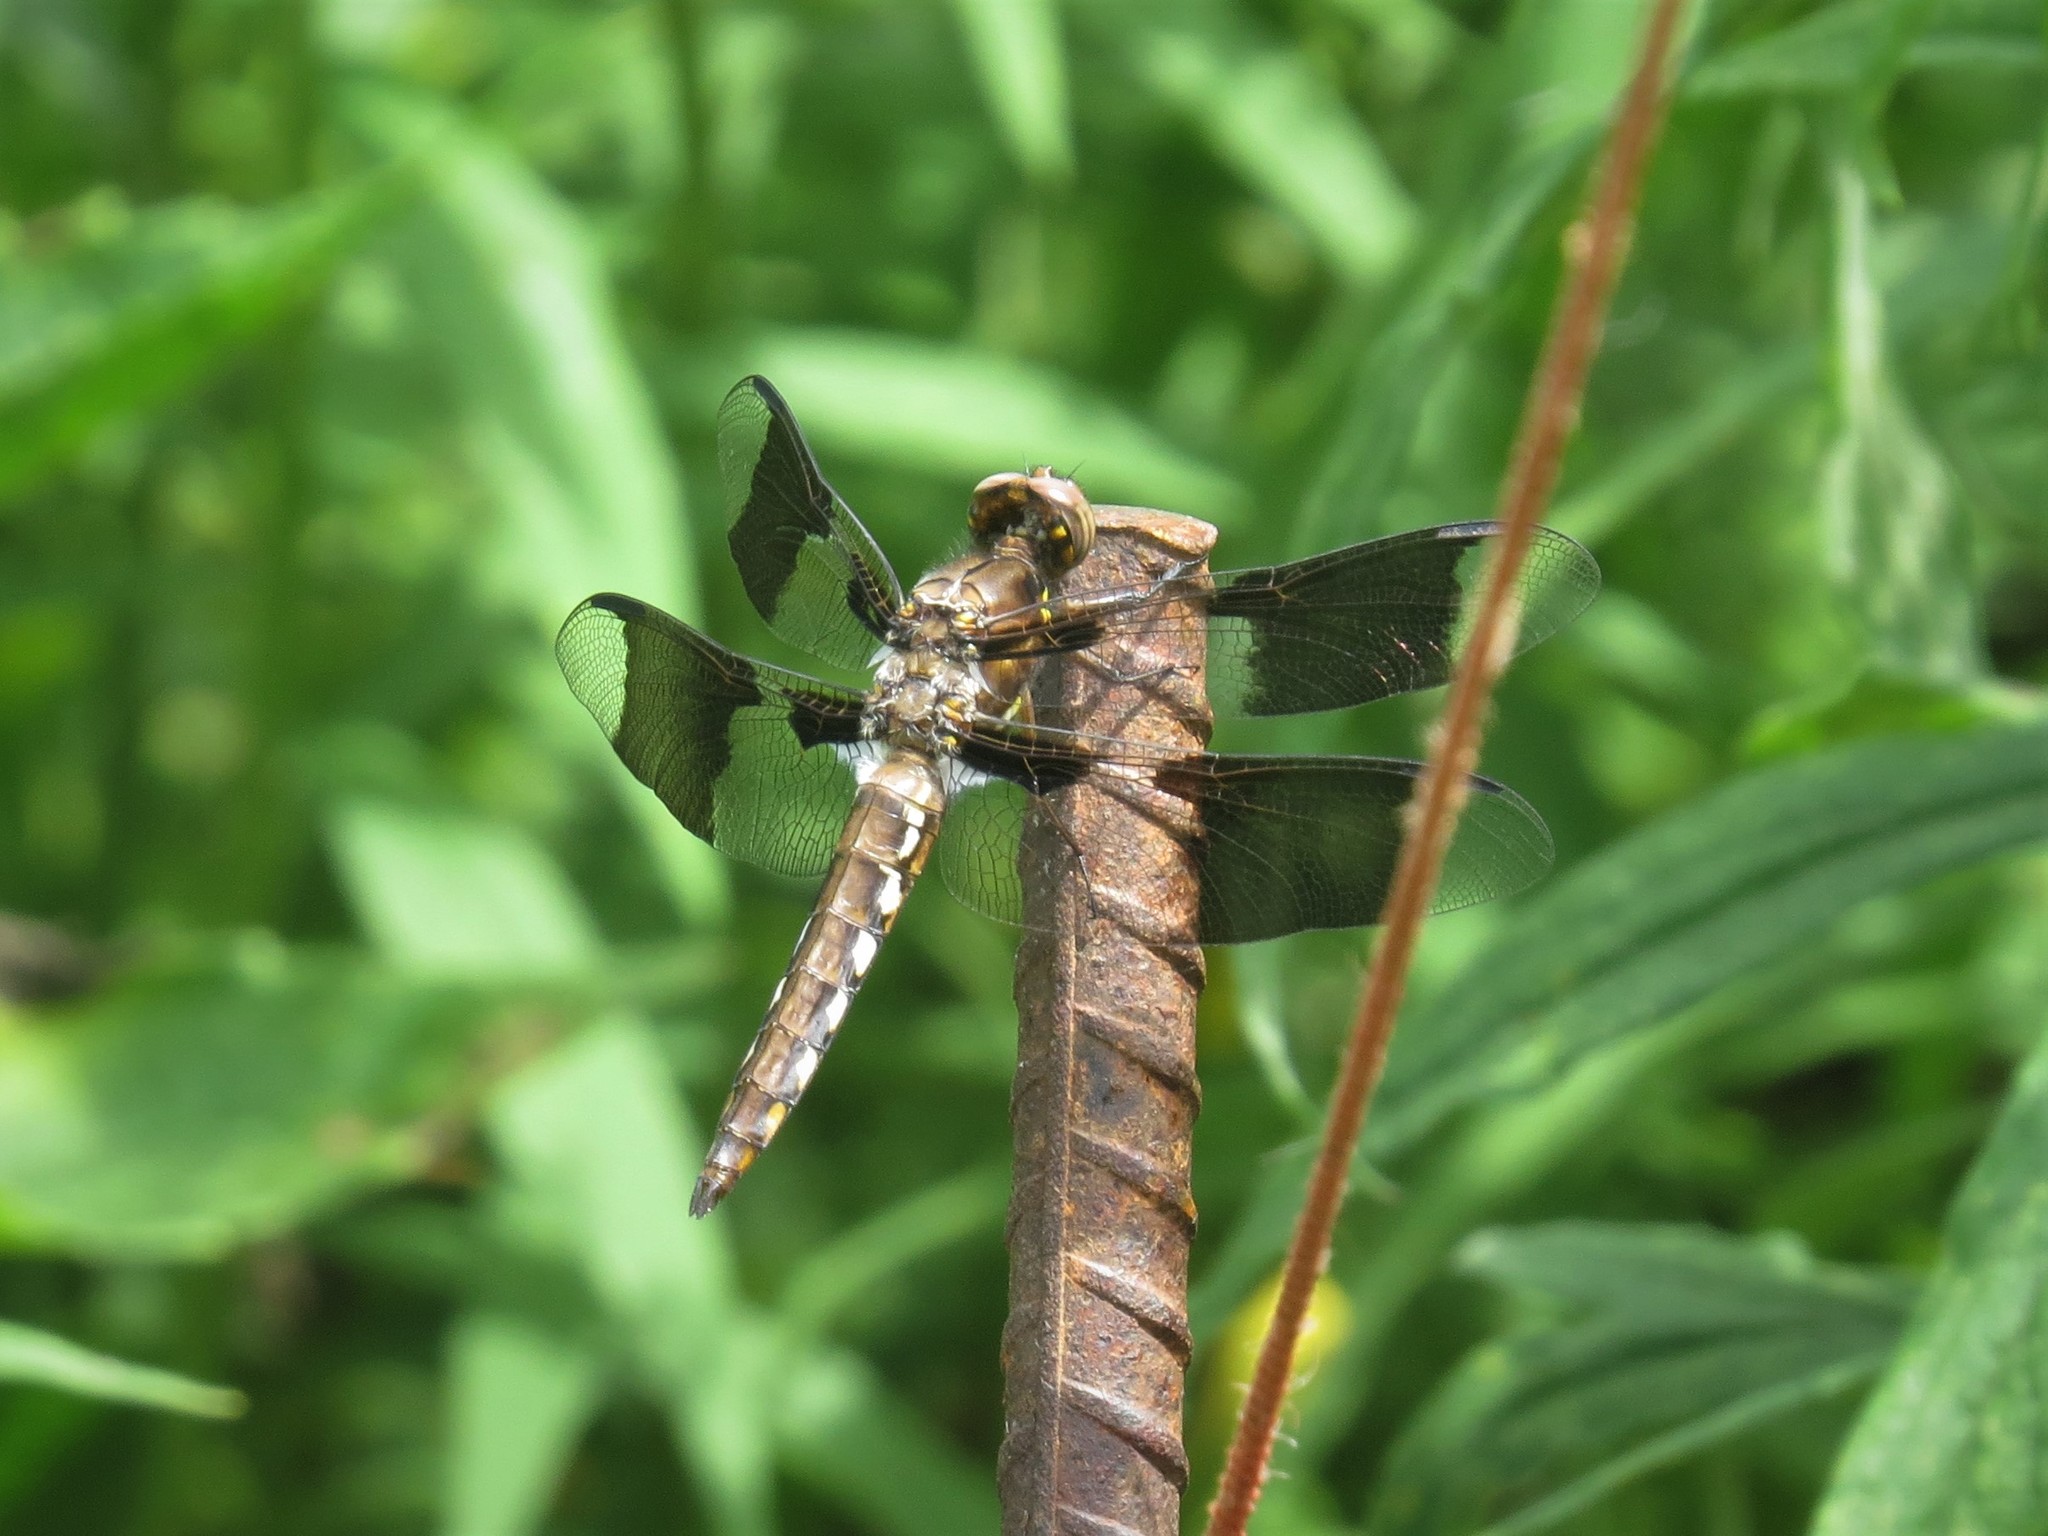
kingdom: Animalia
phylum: Arthropoda
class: Insecta
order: Odonata
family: Libellulidae
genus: Plathemis
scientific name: Plathemis lydia
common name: Common whitetail
